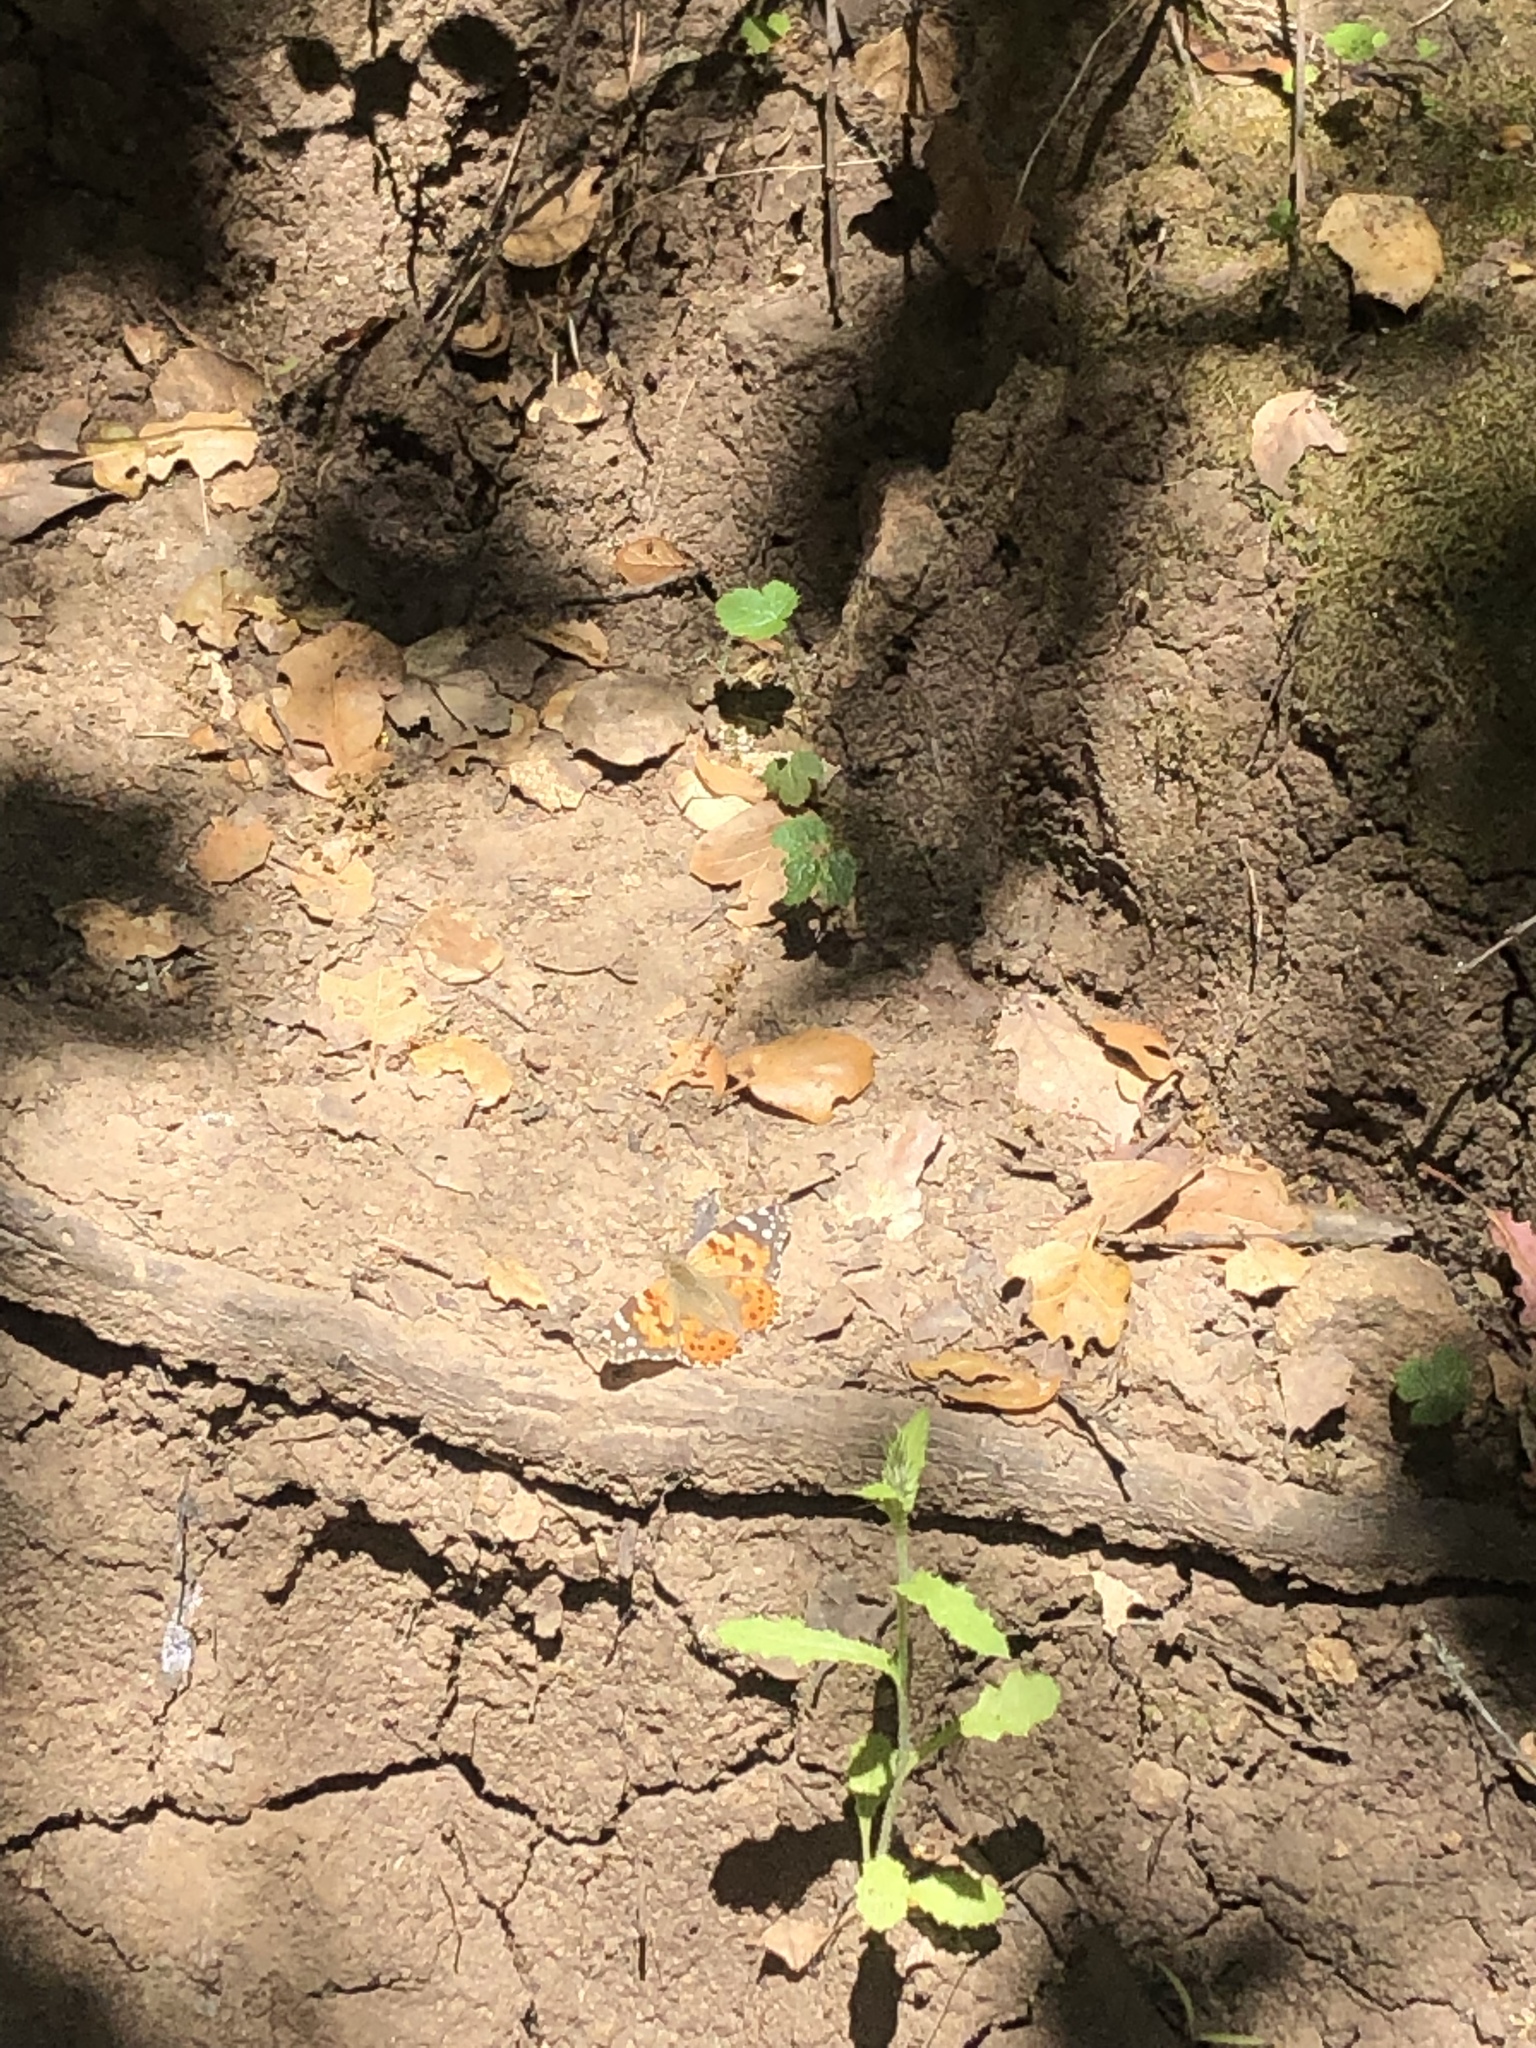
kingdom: Animalia
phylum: Arthropoda
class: Insecta
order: Lepidoptera
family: Nymphalidae
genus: Vanessa
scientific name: Vanessa cardui
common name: Painted lady
